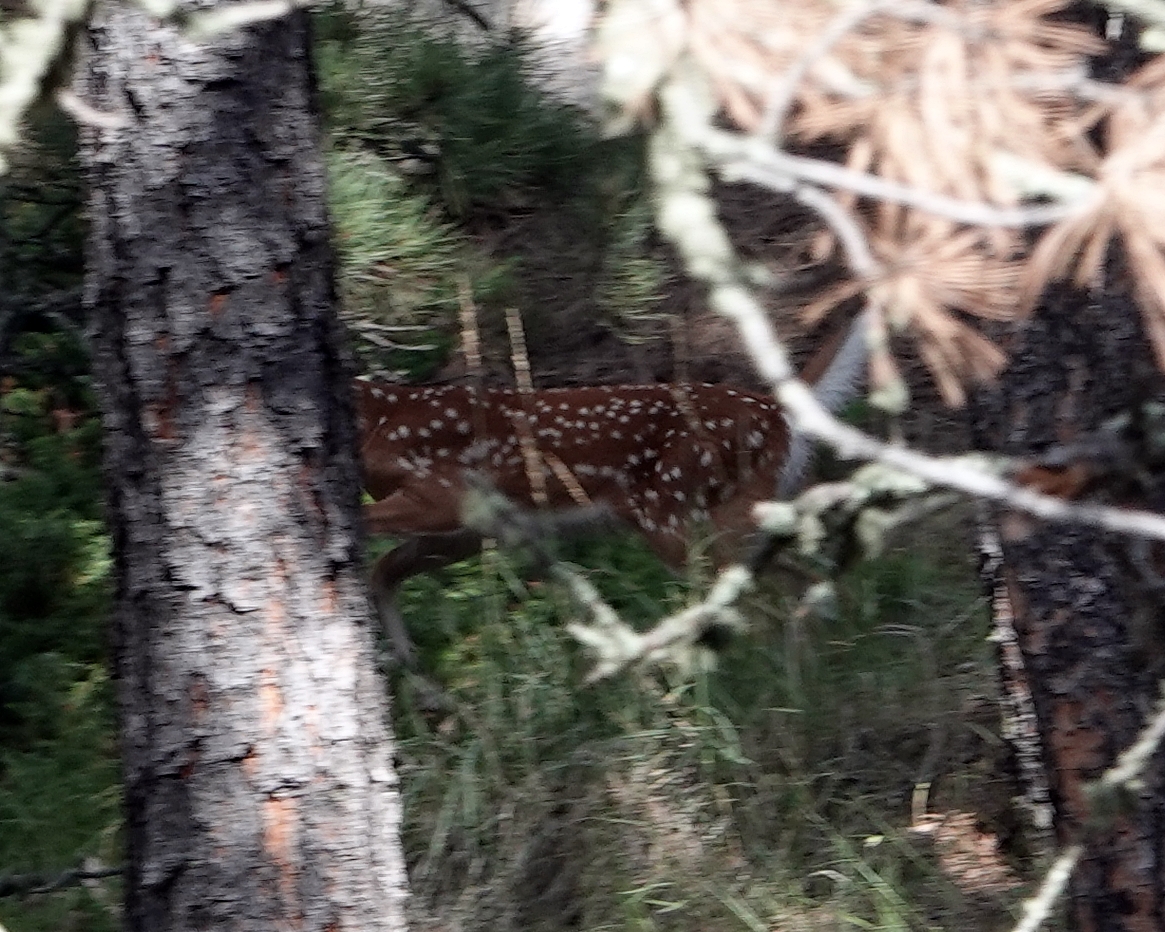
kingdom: Animalia
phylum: Chordata
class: Mammalia
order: Artiodactyla
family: Cervidae
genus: Odocoileus
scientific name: Odocoileus virginianus
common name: White-tailed deer
